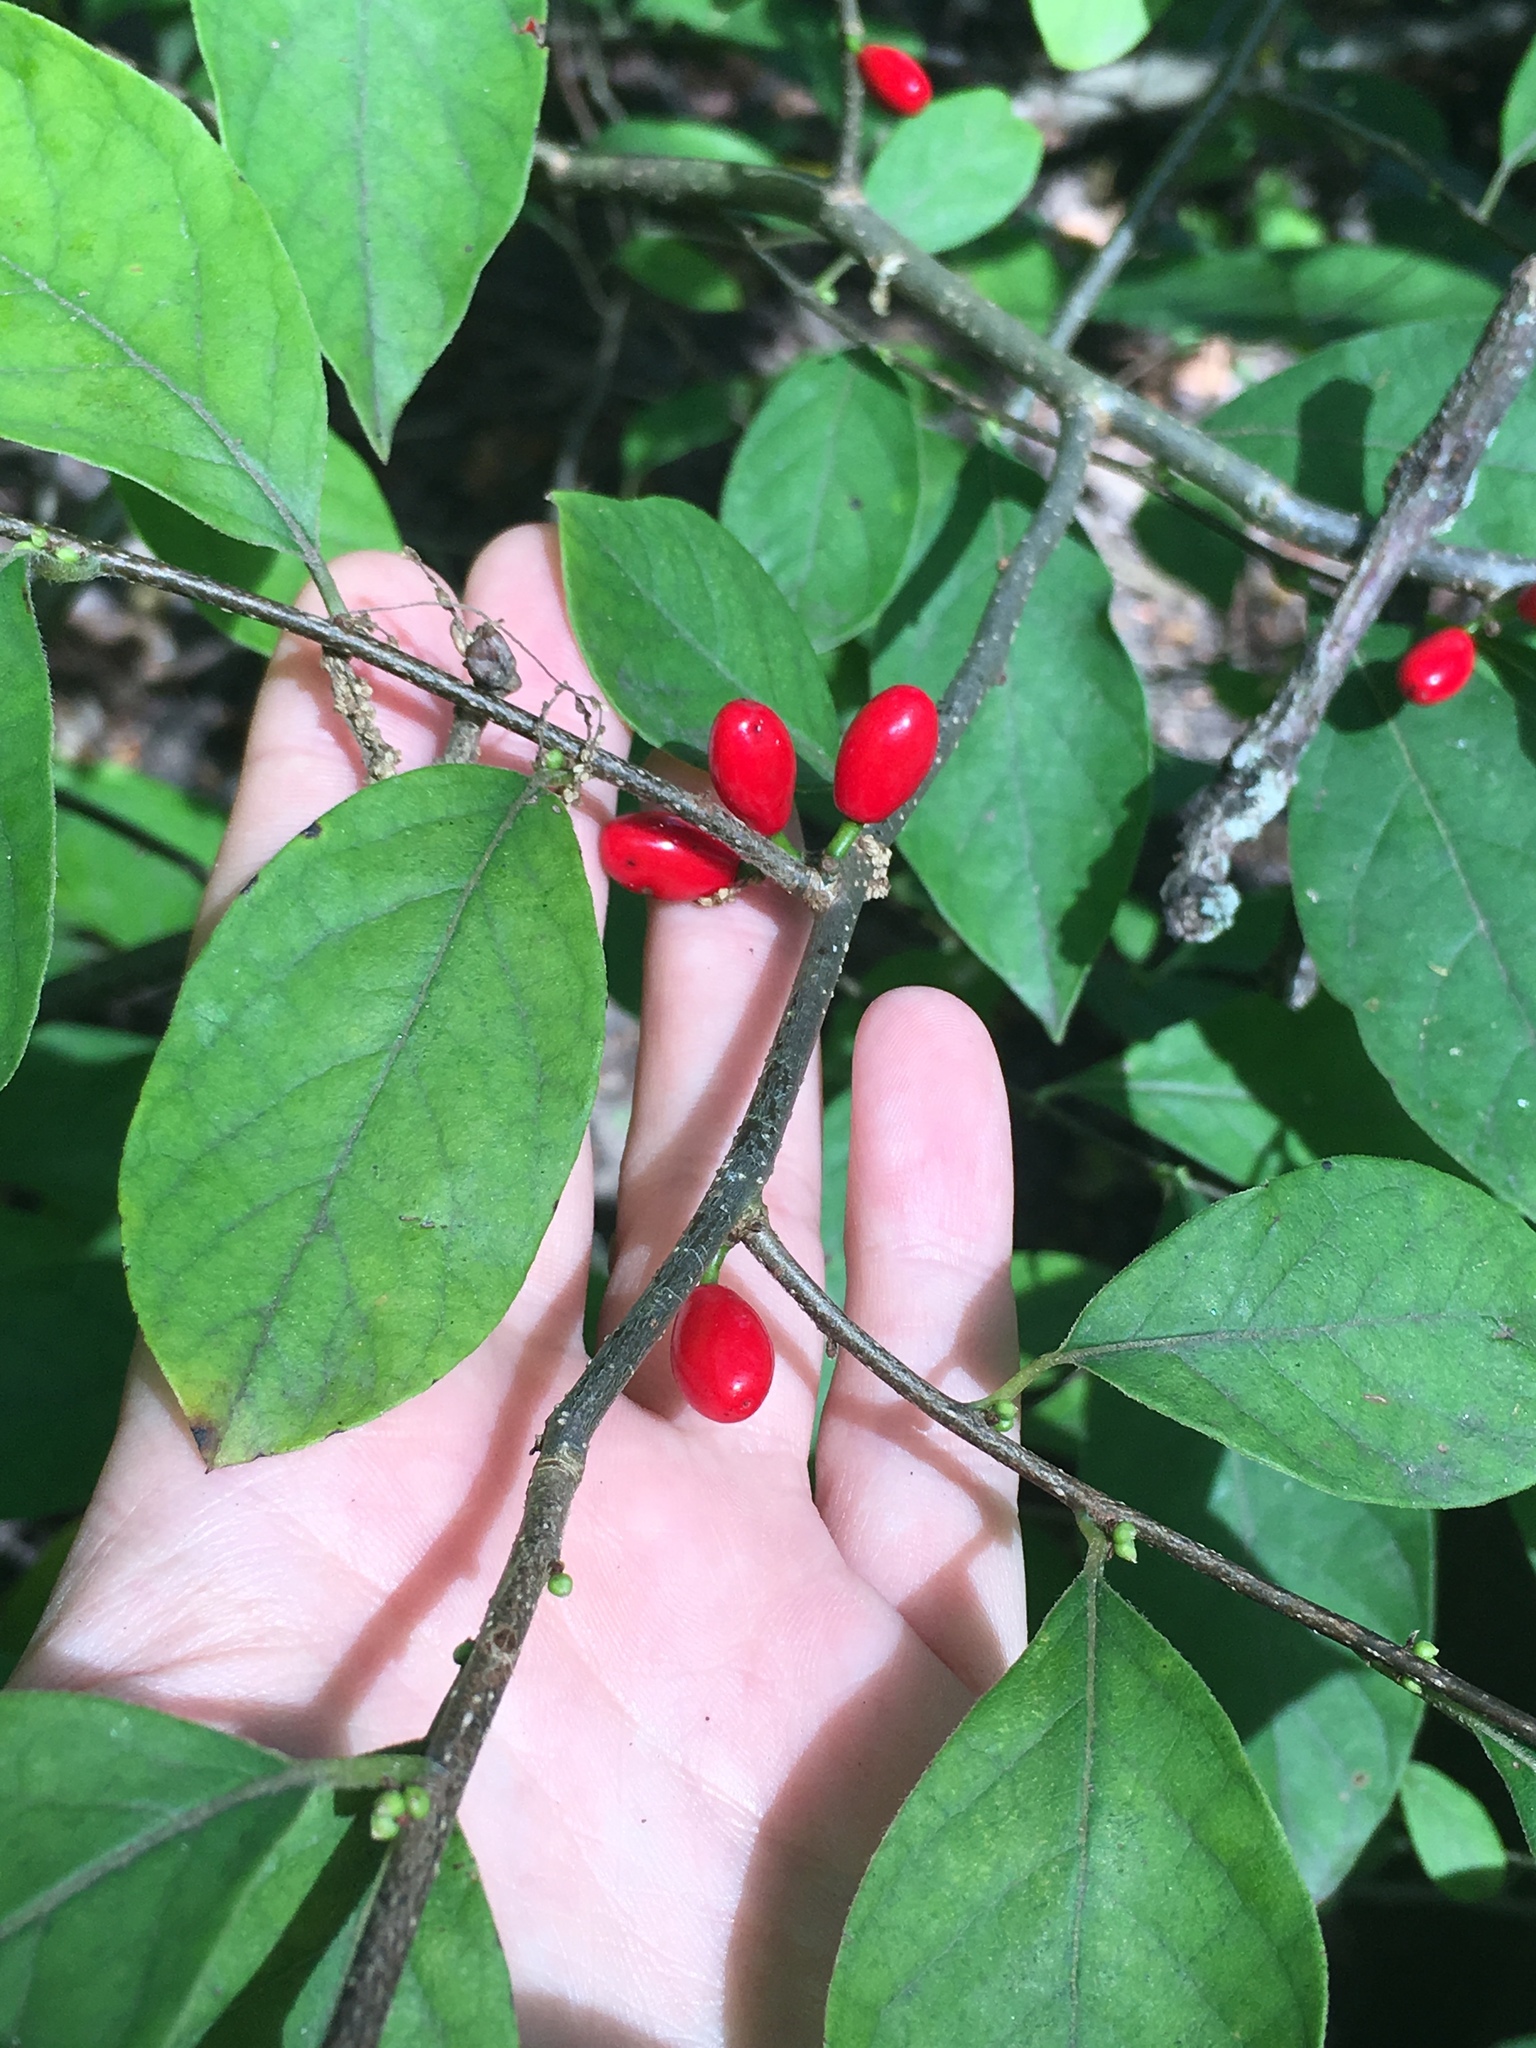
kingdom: Plantae
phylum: Tracheophyta
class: Magnoliopsida
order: Laurales
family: Lauraceae
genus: Lindera
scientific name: Lindera benzoin
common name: Spicebush
